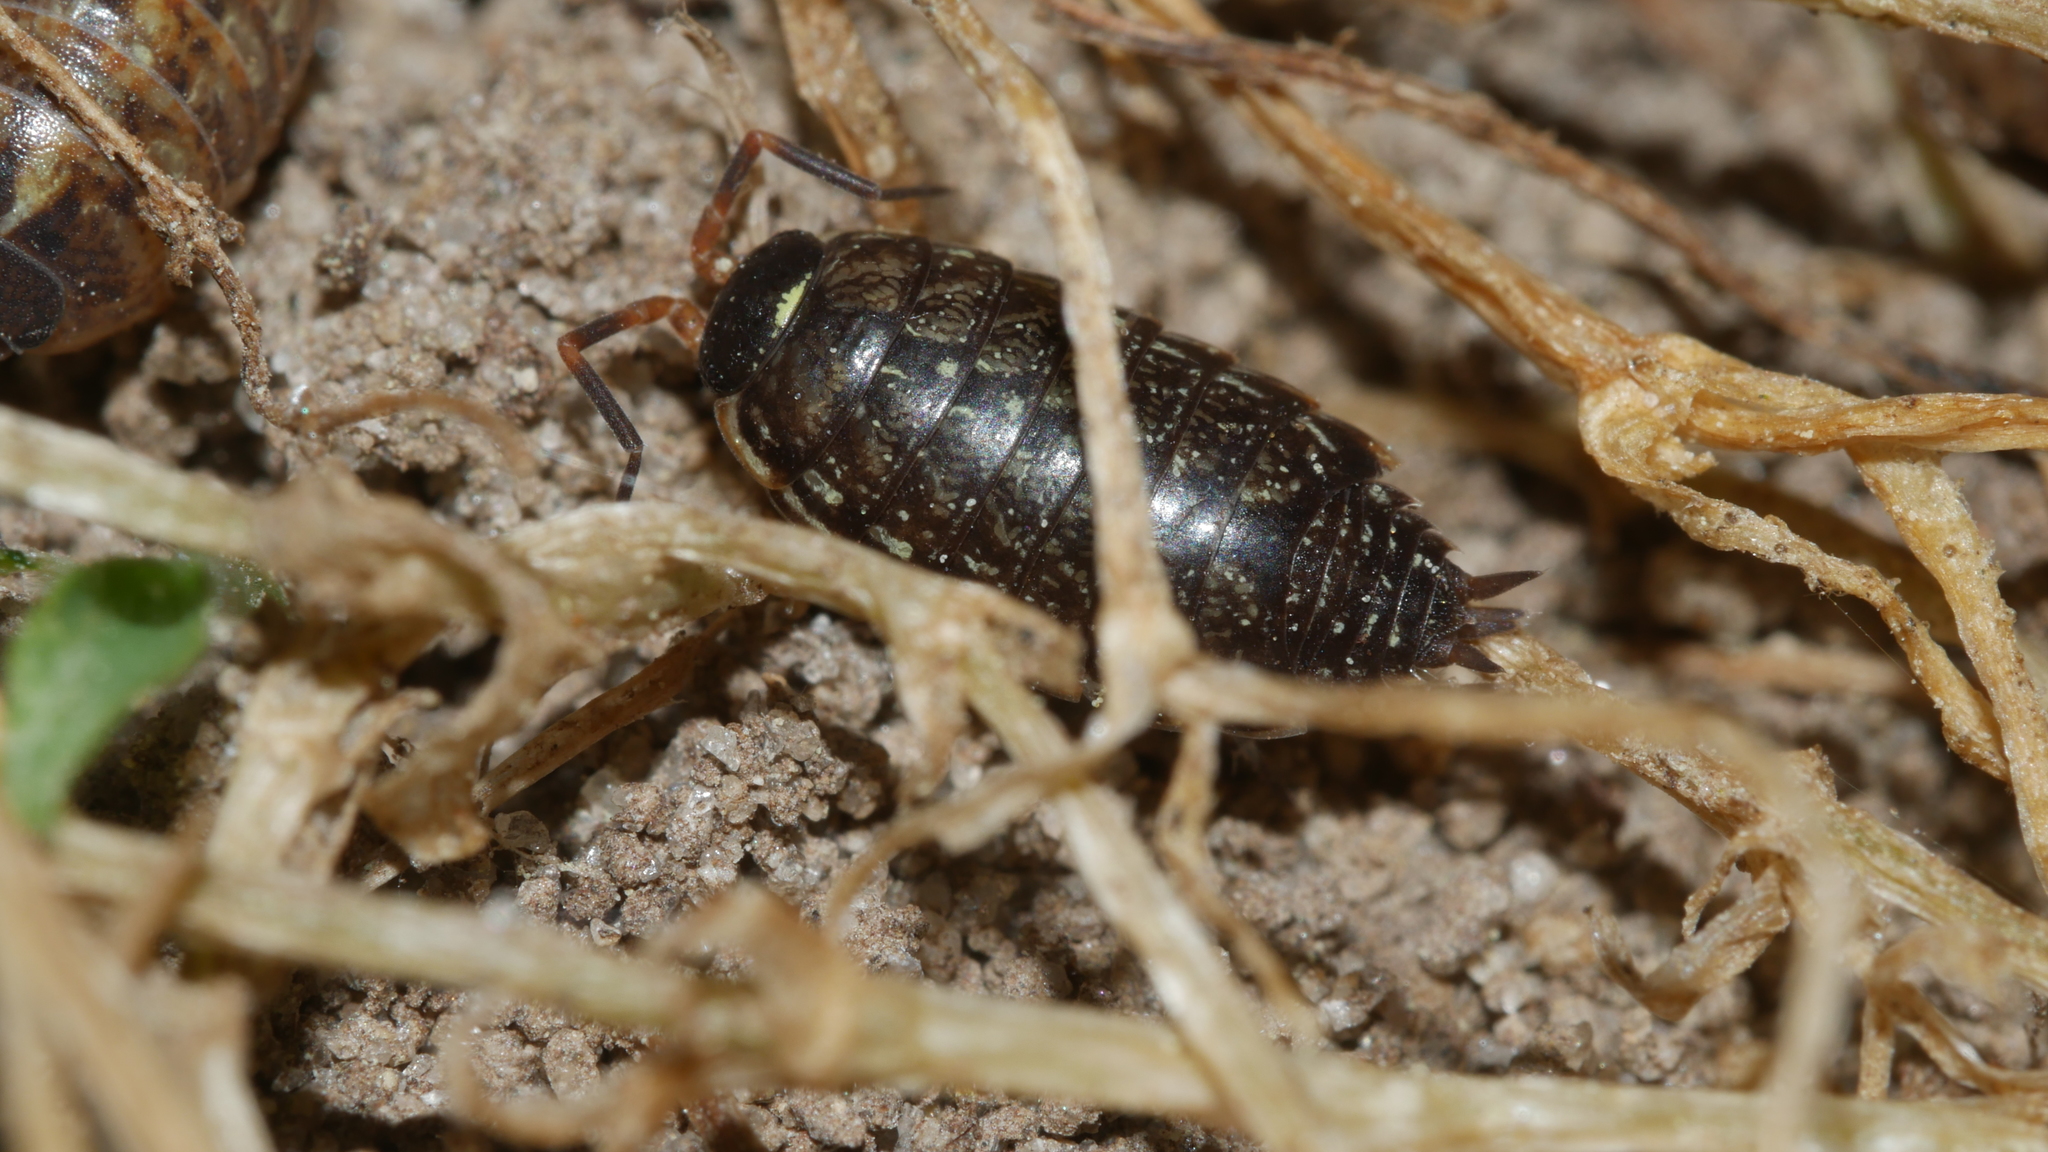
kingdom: Animalia
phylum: Arthropoda
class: Malacostraca
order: Isopoda
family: Philosciidae
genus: Philoscia
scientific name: Philoscia muscorum
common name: Common striped woodlouse
